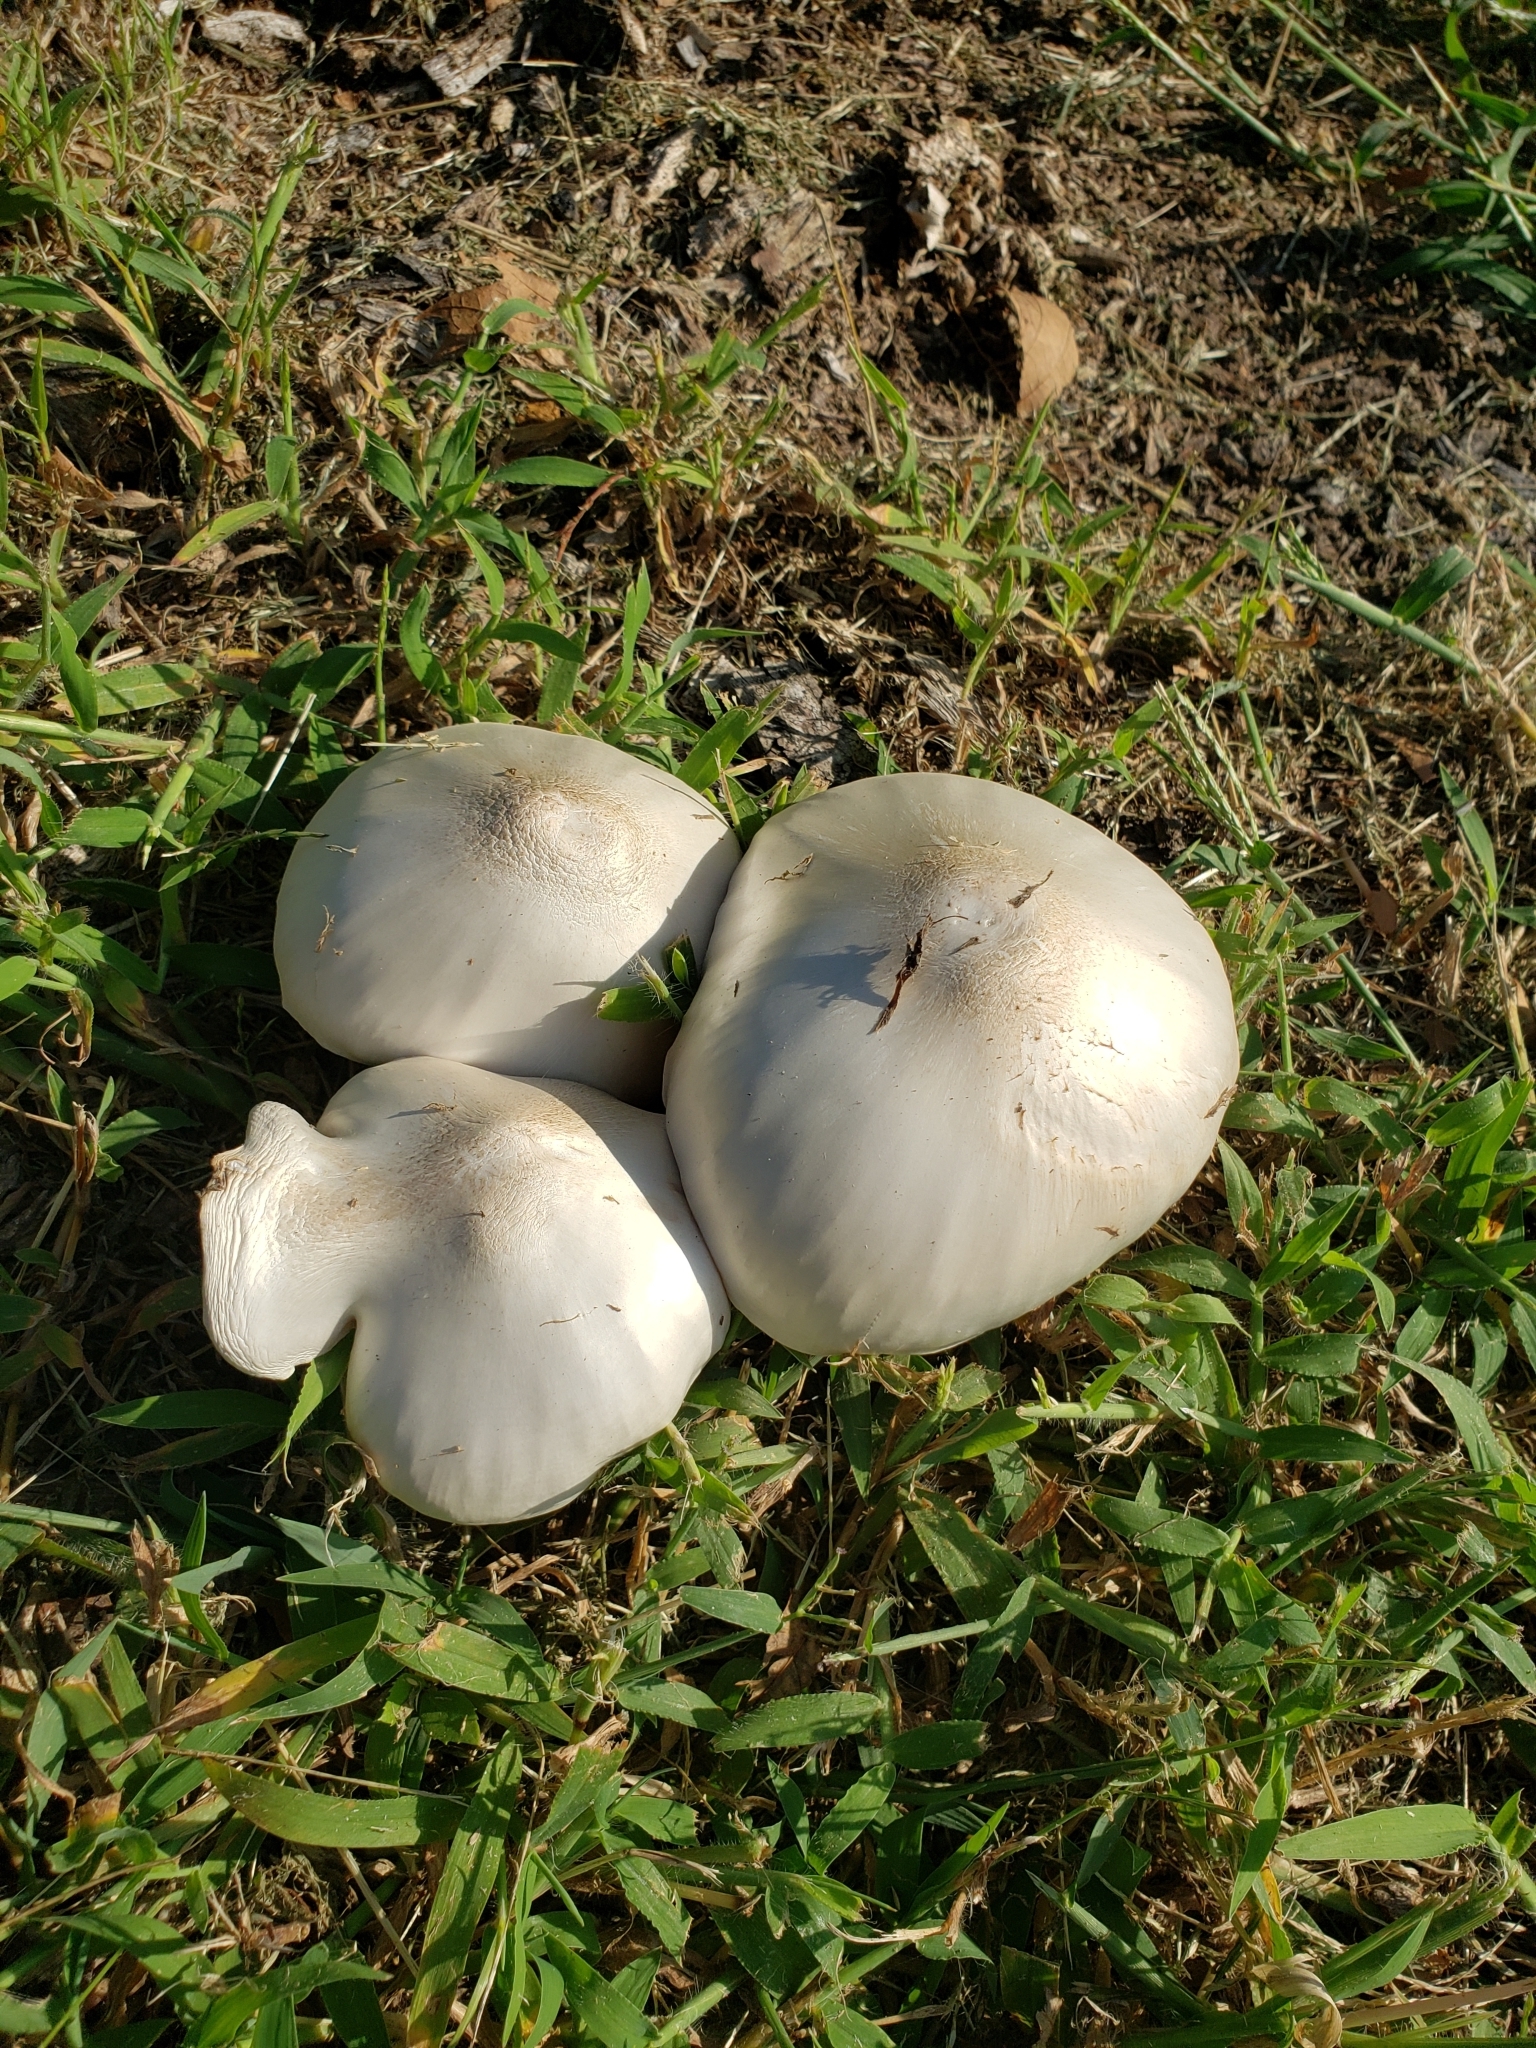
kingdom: Fungi
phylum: Basidiomycota
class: Agaricomycetes
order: Agaricales
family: Pluteaceae
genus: Volvopluteus
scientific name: Volvopluteus gloiocephalus
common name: Stubble rosegill
